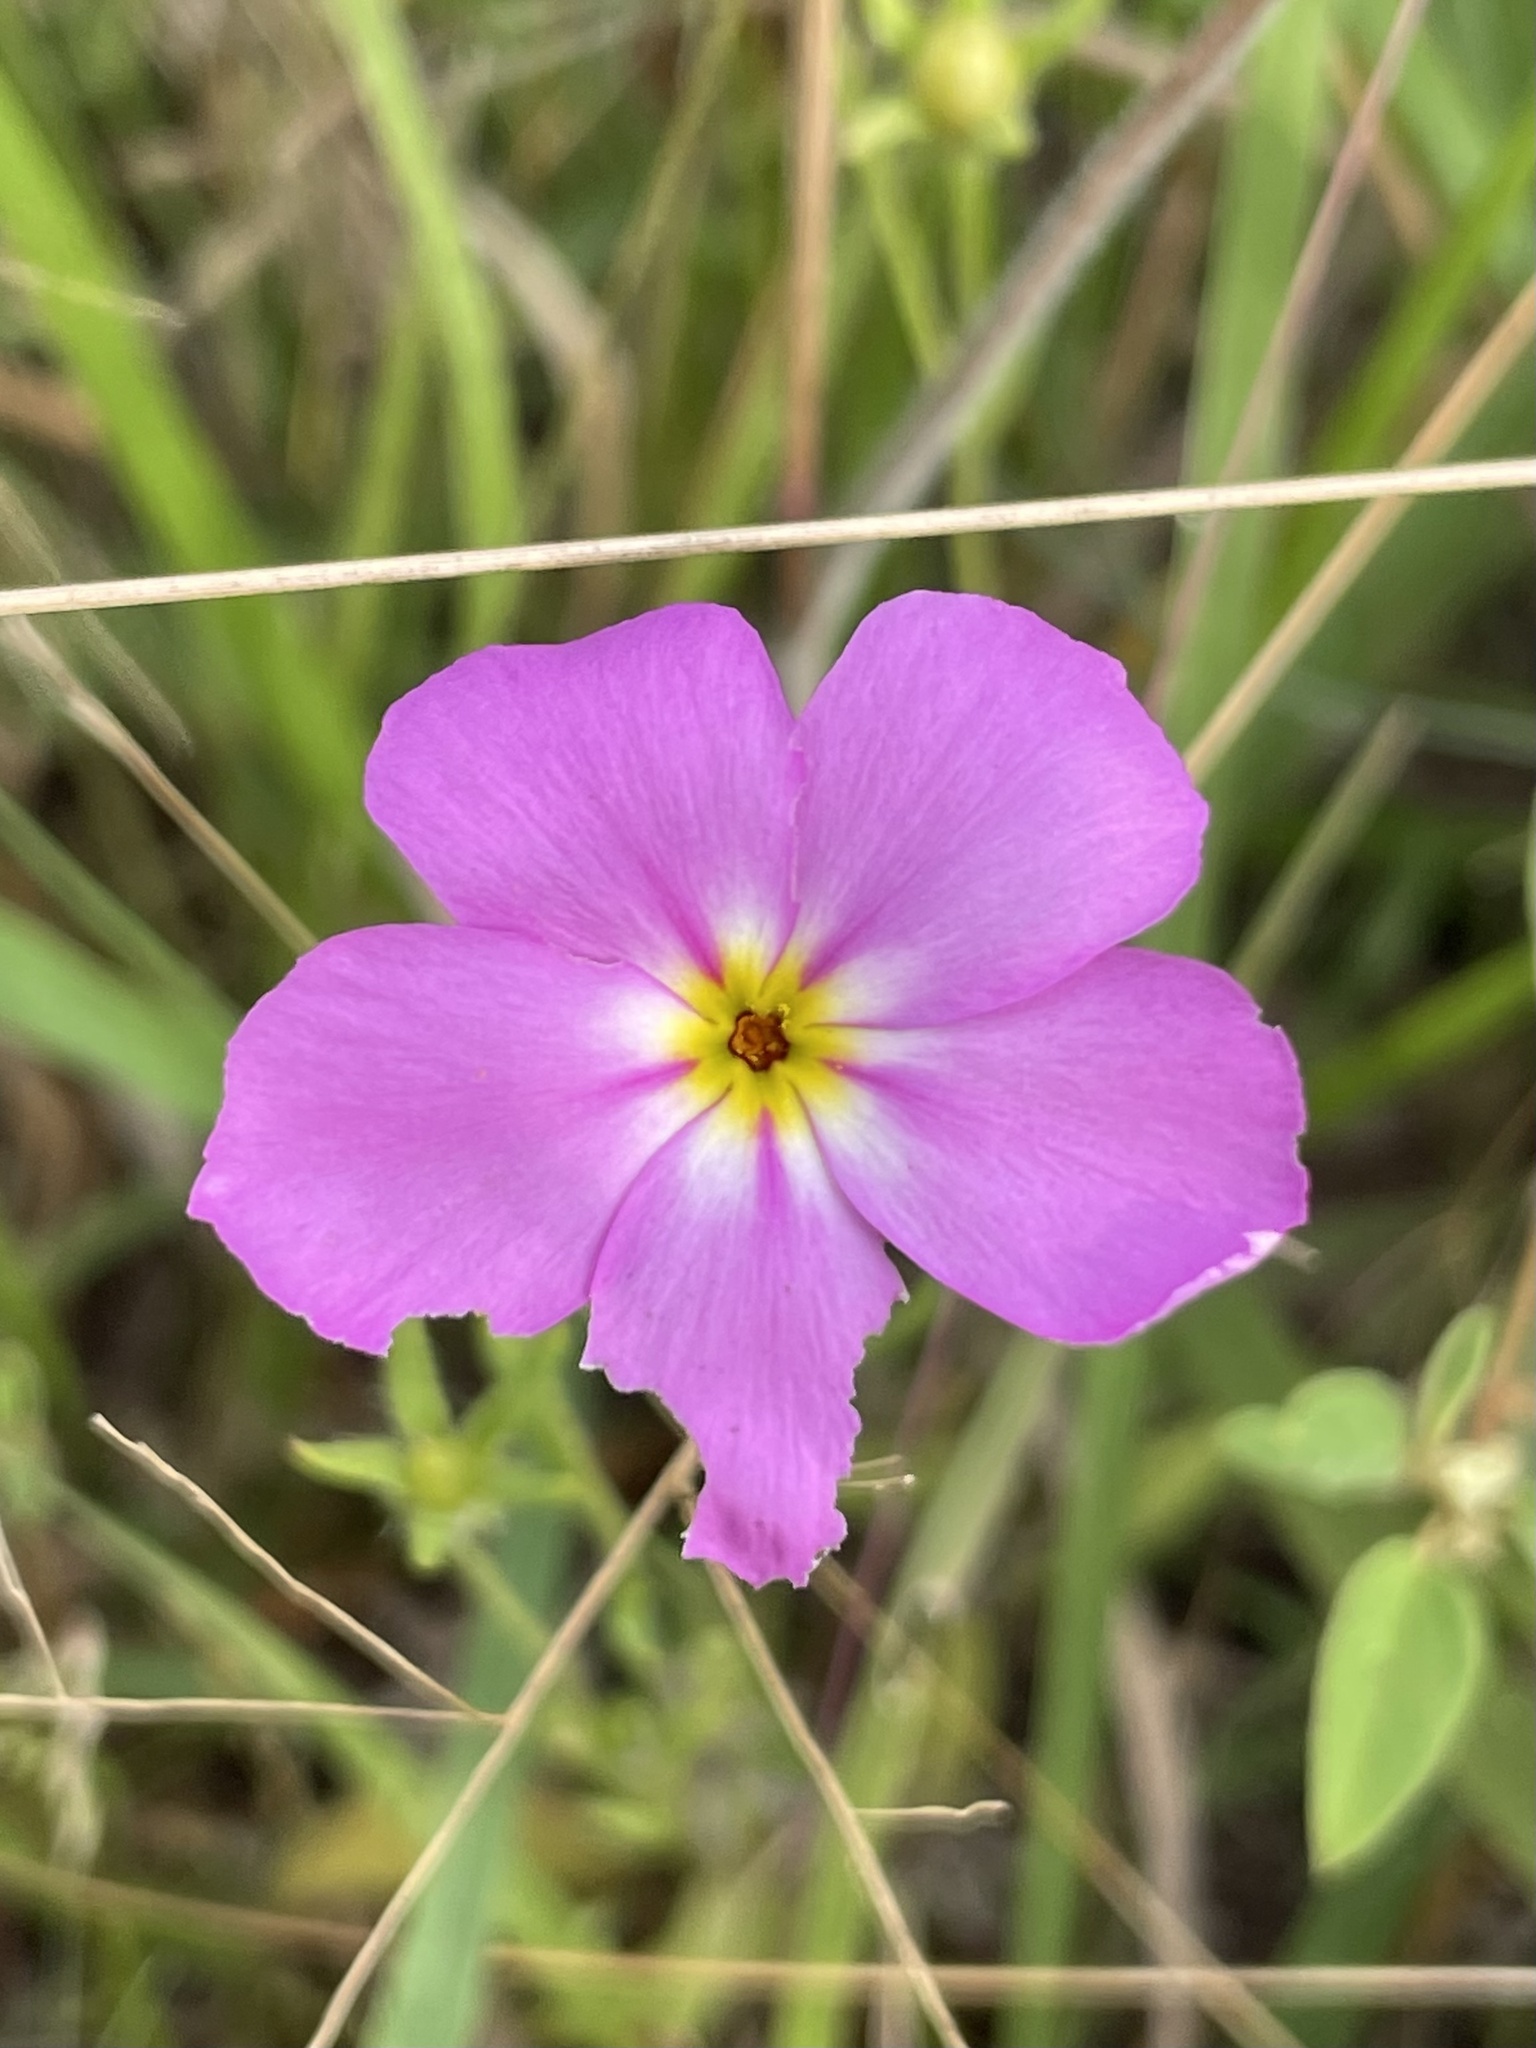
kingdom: Plantae
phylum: Tracheophyta
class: Magnoliopsida
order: Ericales
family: Polemoniaceae
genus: Phlox
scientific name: Phlox roemeriana
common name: Roemer's phlox
